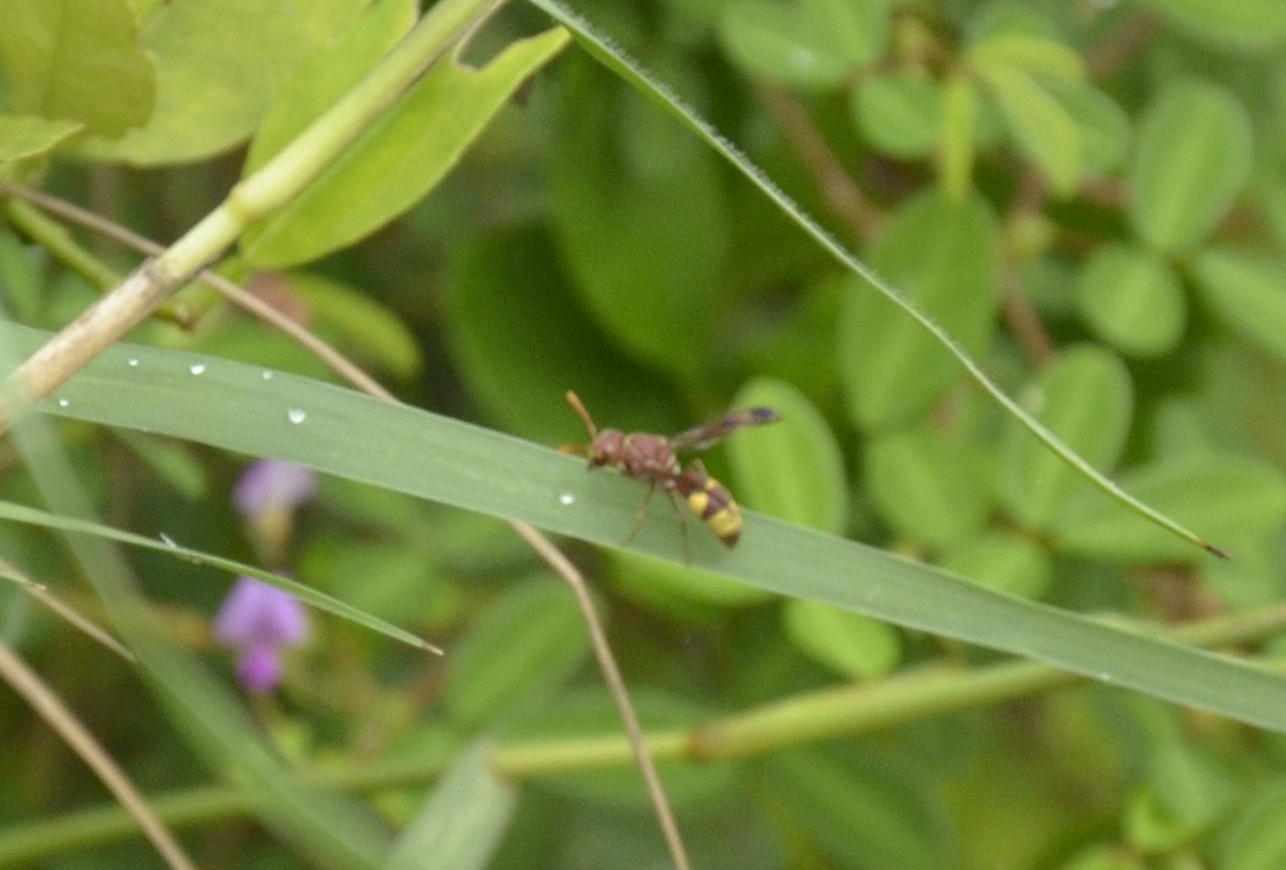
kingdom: Animalia
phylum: Arthropoda
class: Insecta
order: Hymenoptera
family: Eumenidae
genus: Antodynerus
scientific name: Antodynerus punctatipennis
